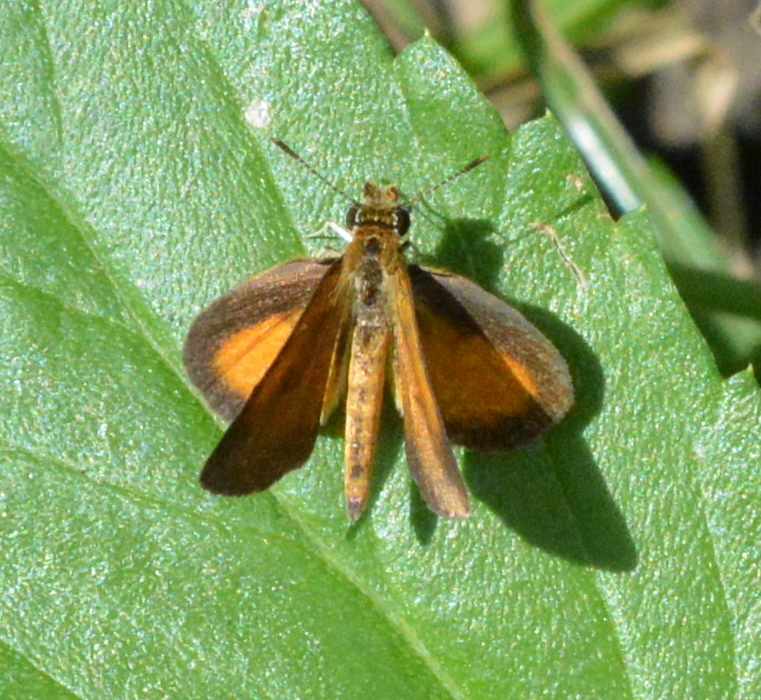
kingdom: Animalia
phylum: Arthropoda
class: Insecta
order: Lepidoptera
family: Hesperiidae
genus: Ancyloxypha
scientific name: Ancyloxypha numitor
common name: Least skipper
